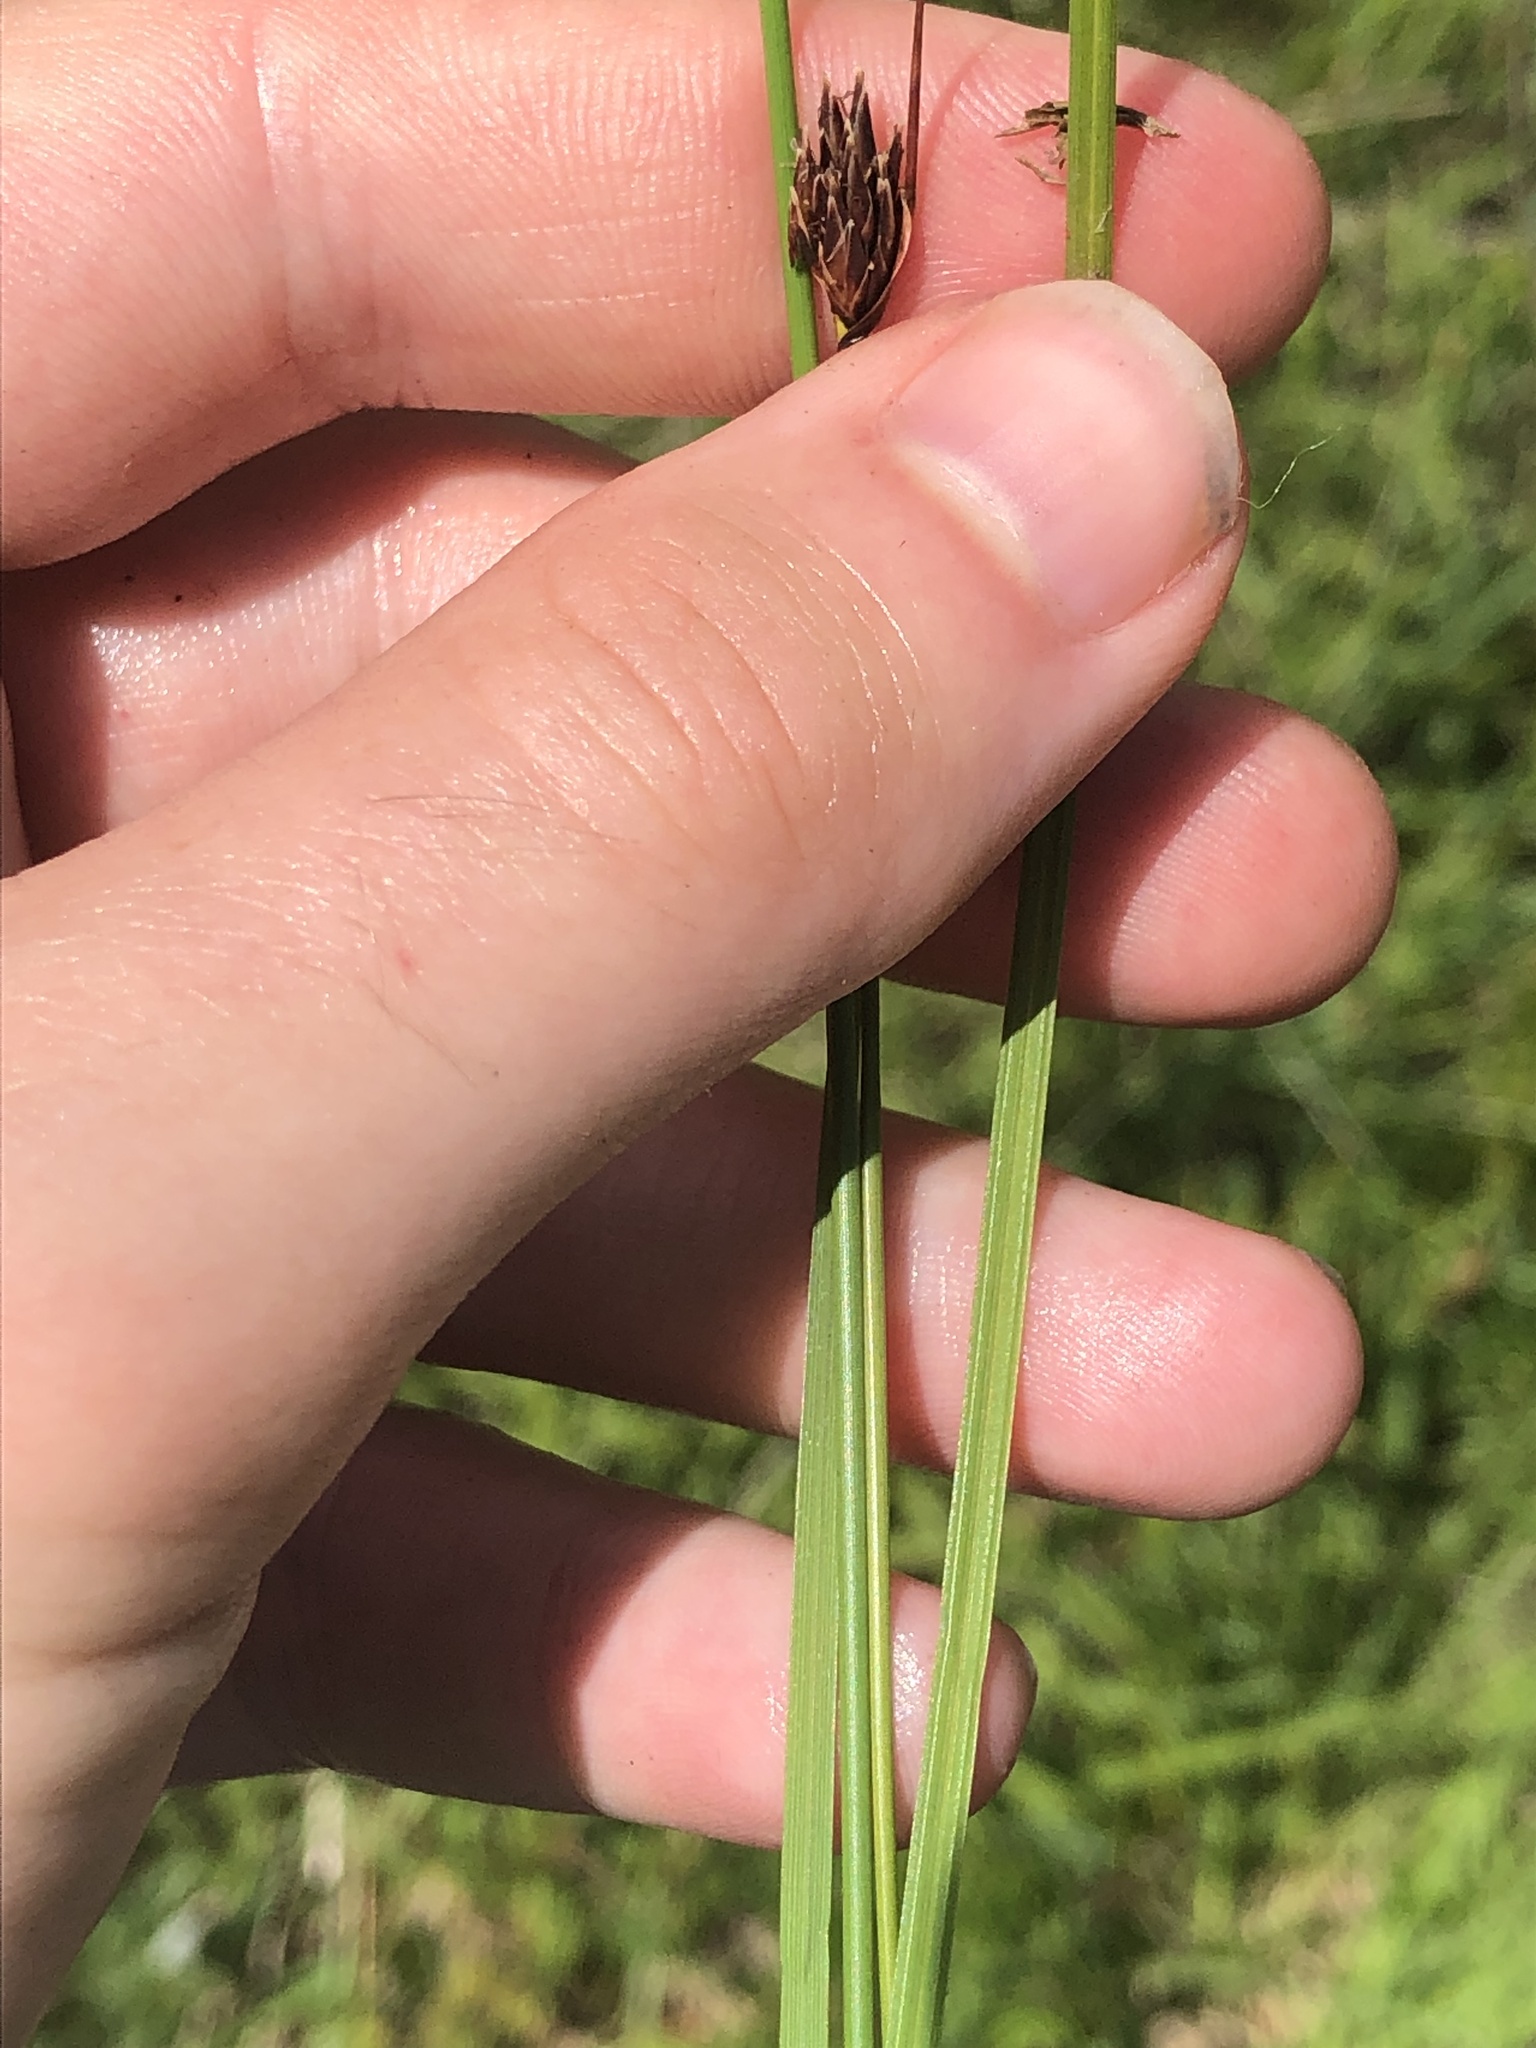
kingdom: Plantae
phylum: Tracheophyta
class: Liliopsida
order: Poales
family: Cyperaceae
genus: Schoenus
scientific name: Schoenus nigricans
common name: Black bog-rush
